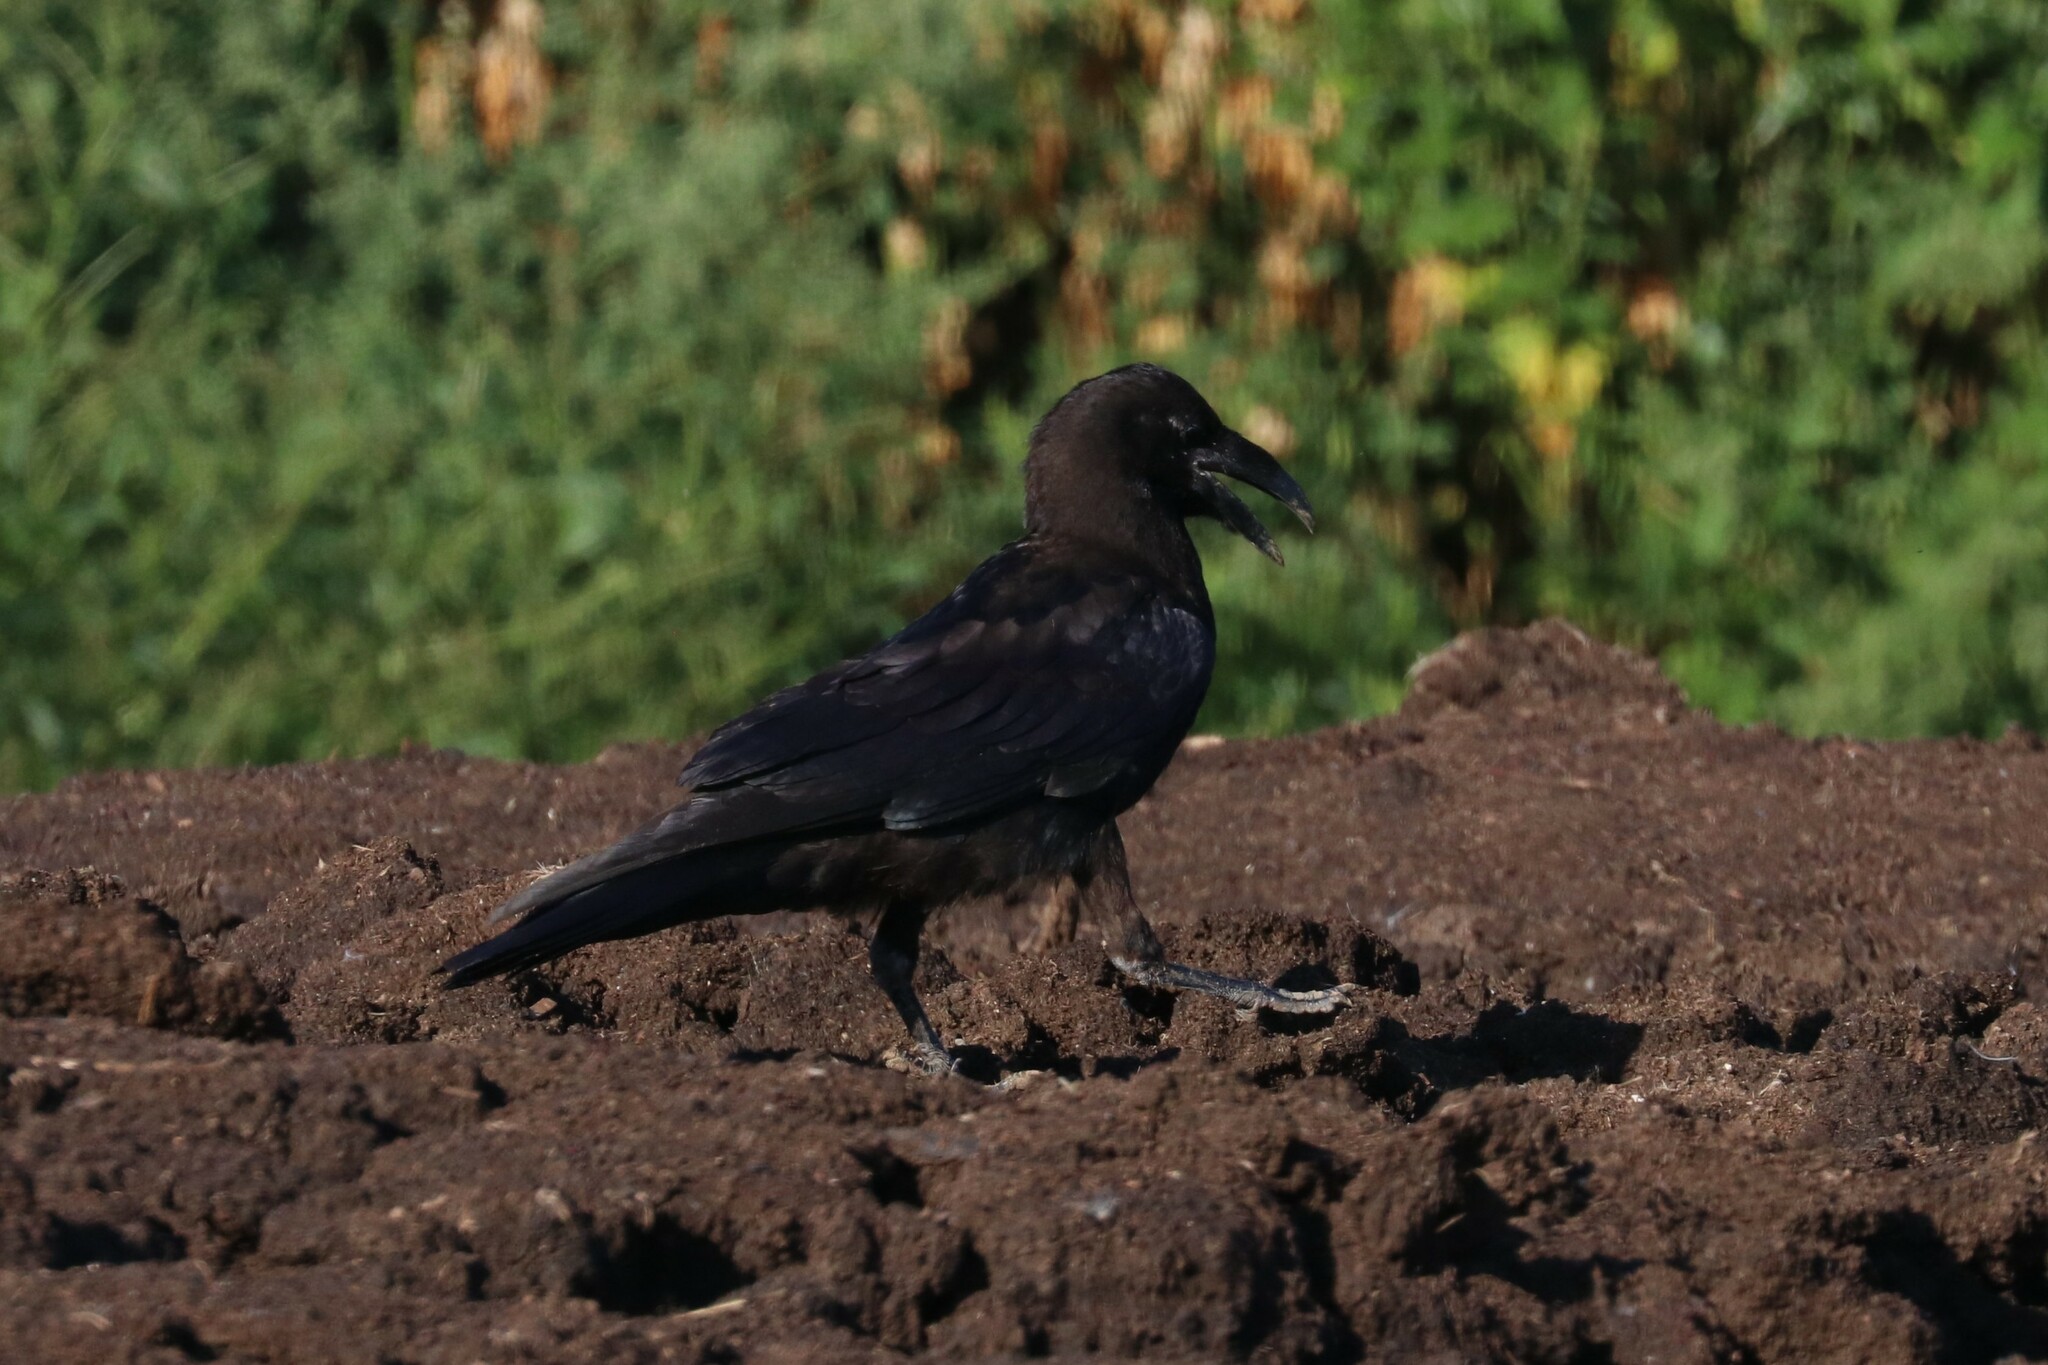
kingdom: Animalia
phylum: Chordata
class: Aves
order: Passeriformes
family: Corvidae
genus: Corvus
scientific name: Corvus corax
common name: Common raven
